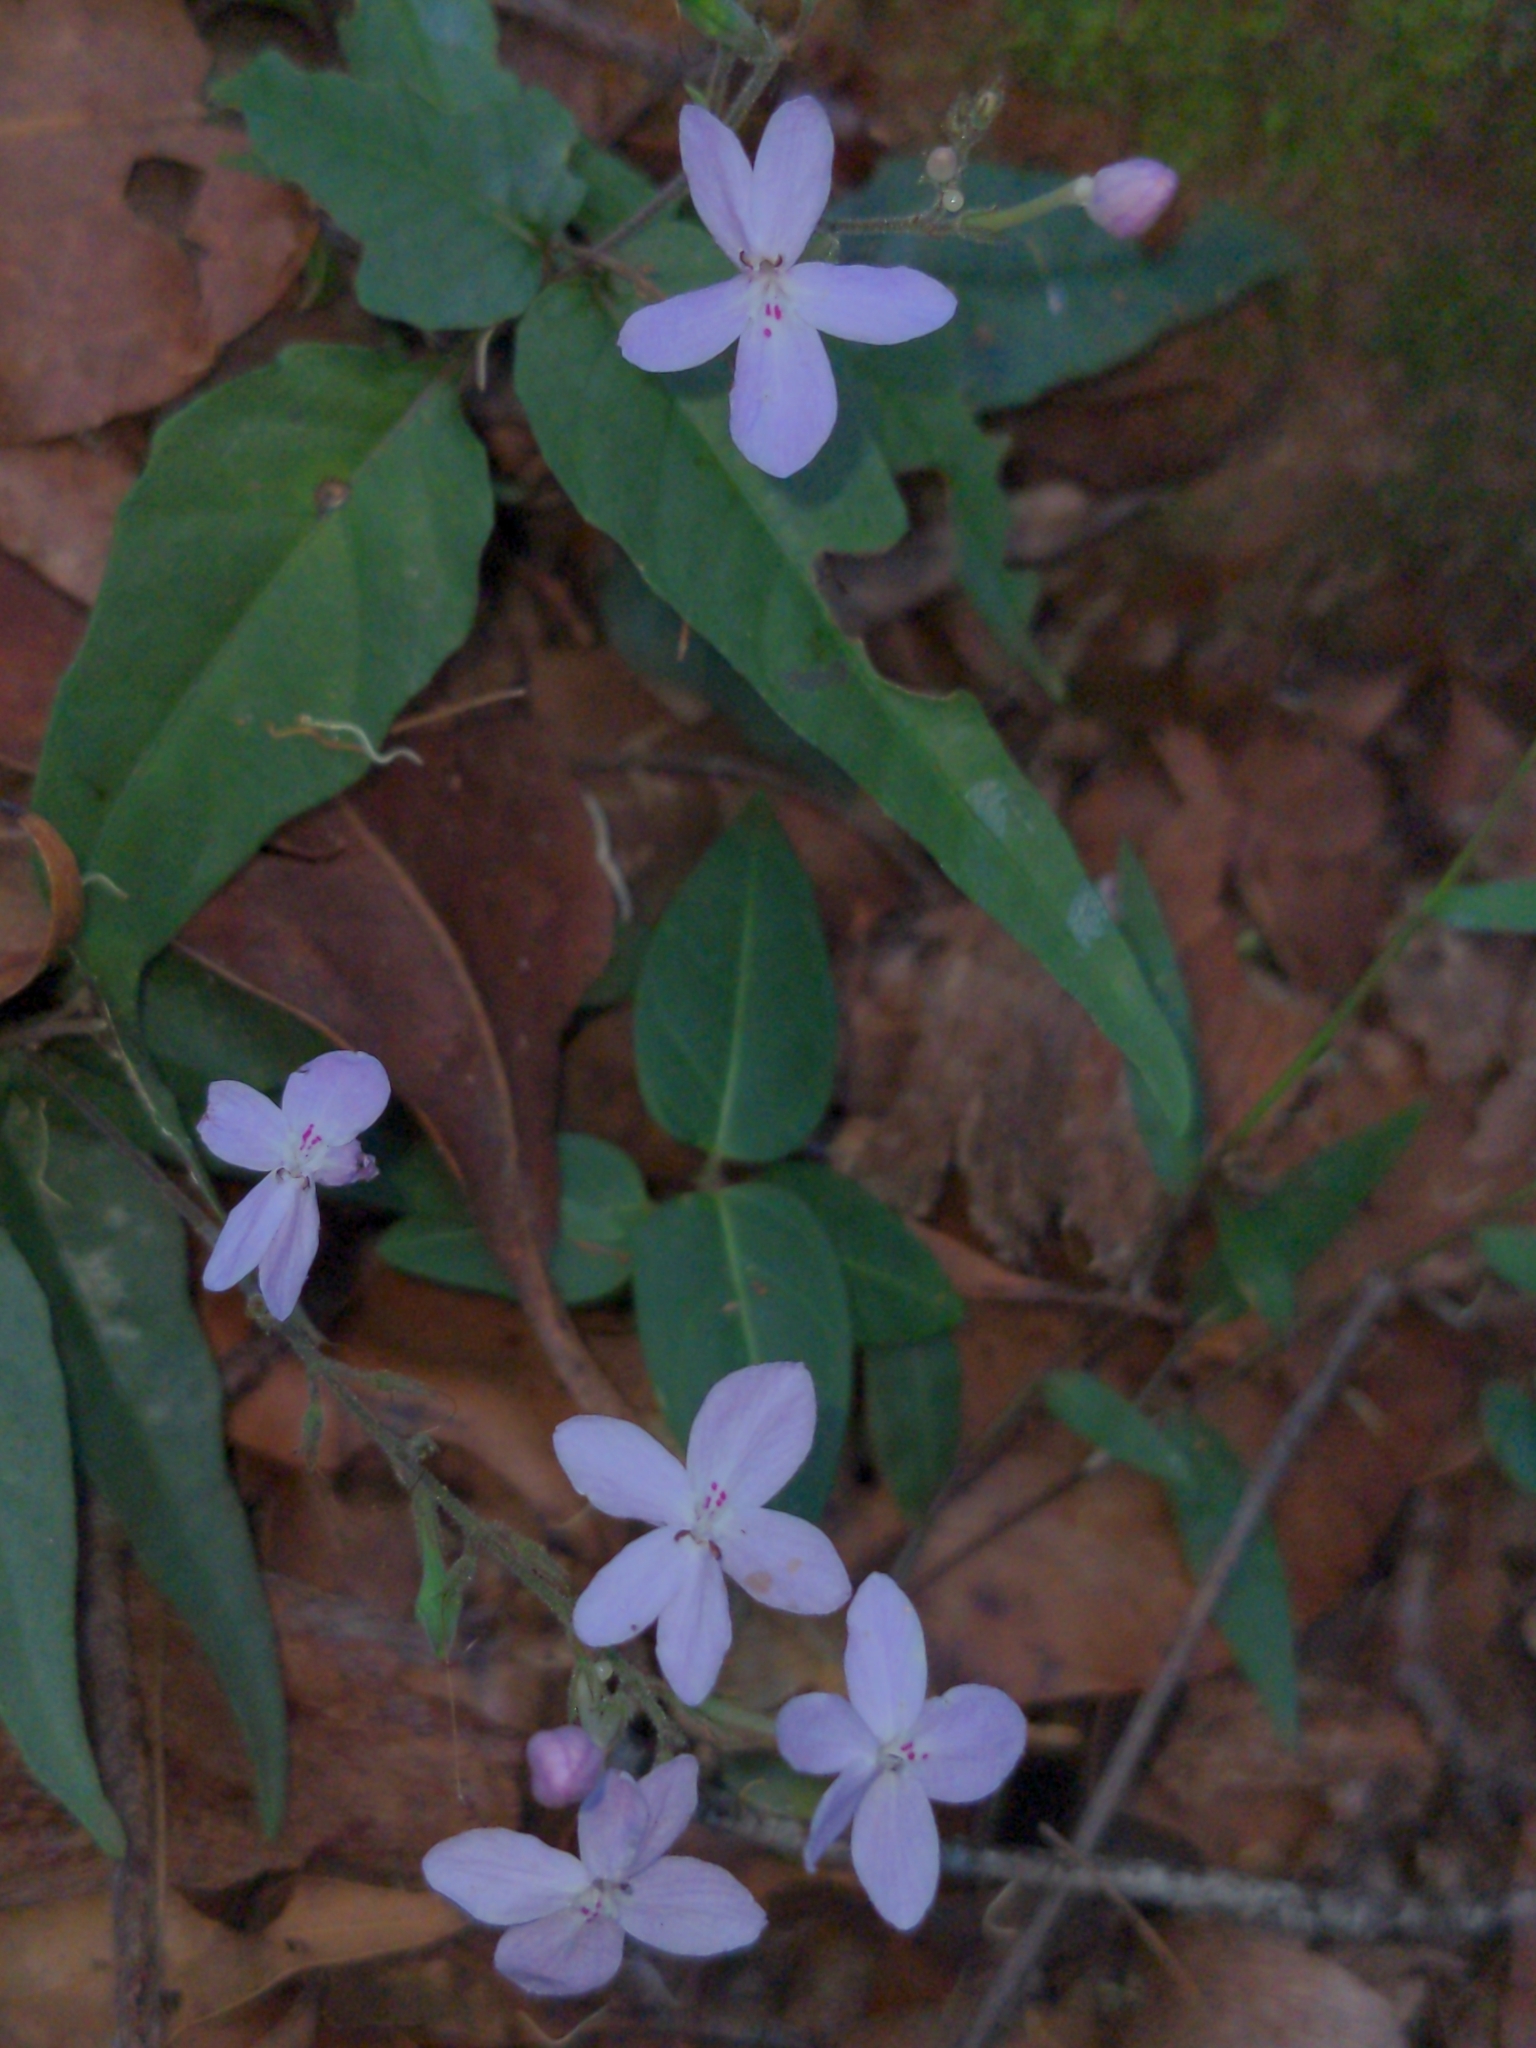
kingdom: Plantae
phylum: Tracheophyta
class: Magnoliopsida
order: Lamiales
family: Acanthaceae
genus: Pseuderanthemum
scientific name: Pseuderanthemum variabile
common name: Night and afternoon
